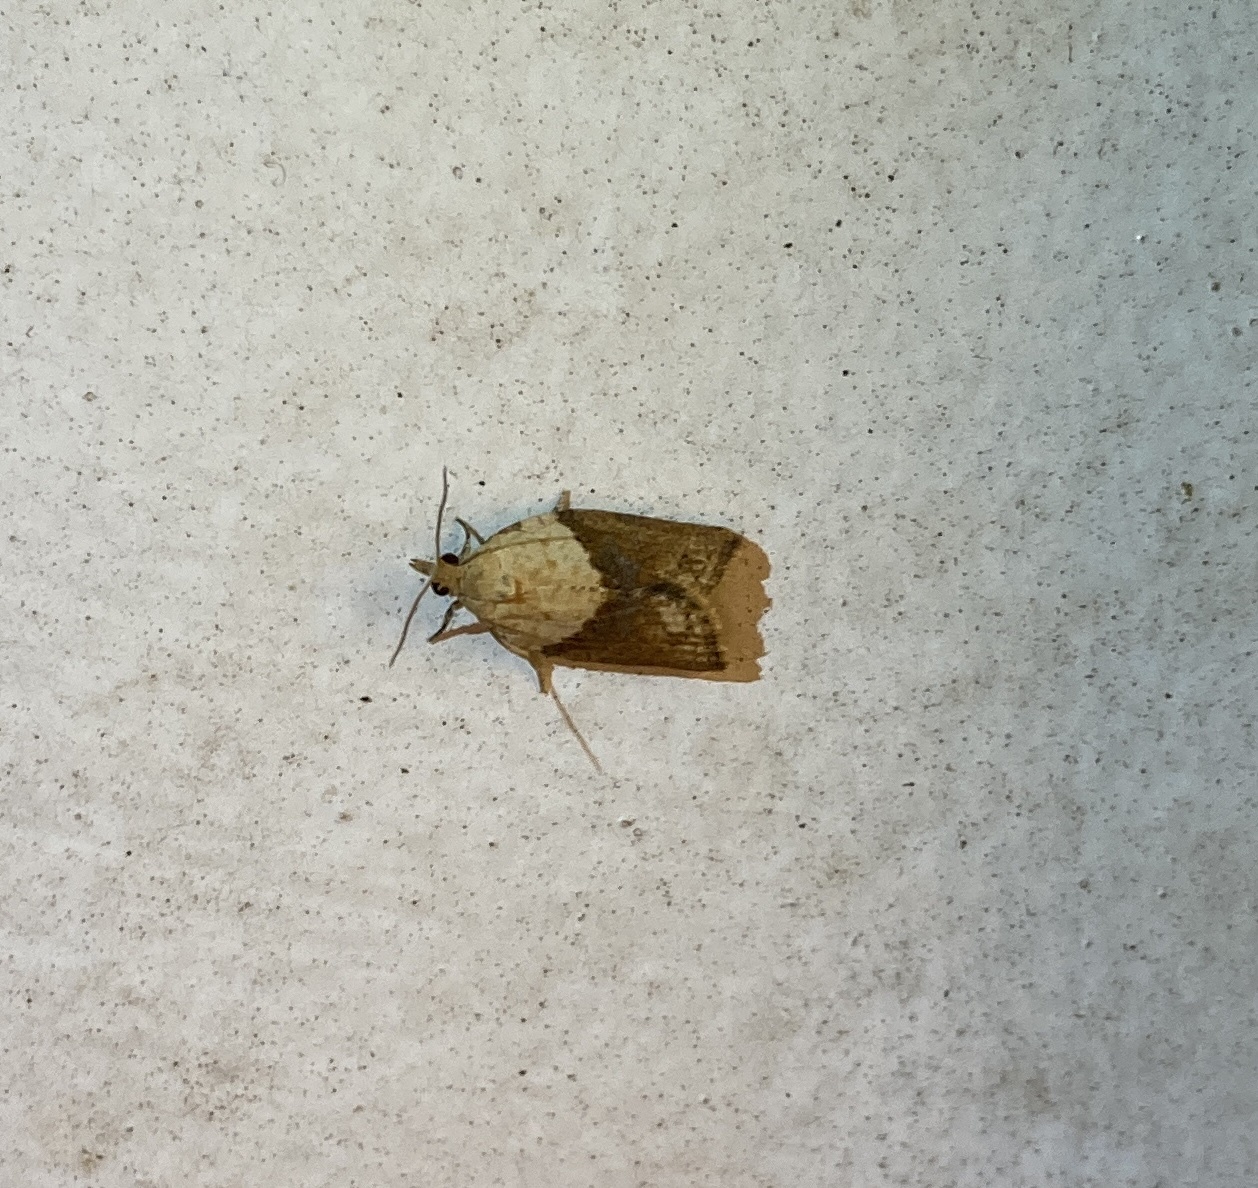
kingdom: Animalia
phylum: Arthropoda
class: Insecta
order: Lepidoptera
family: Tortricidae
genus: Epiphyas
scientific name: Epiphyas postvittana
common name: Light brown apple moth
